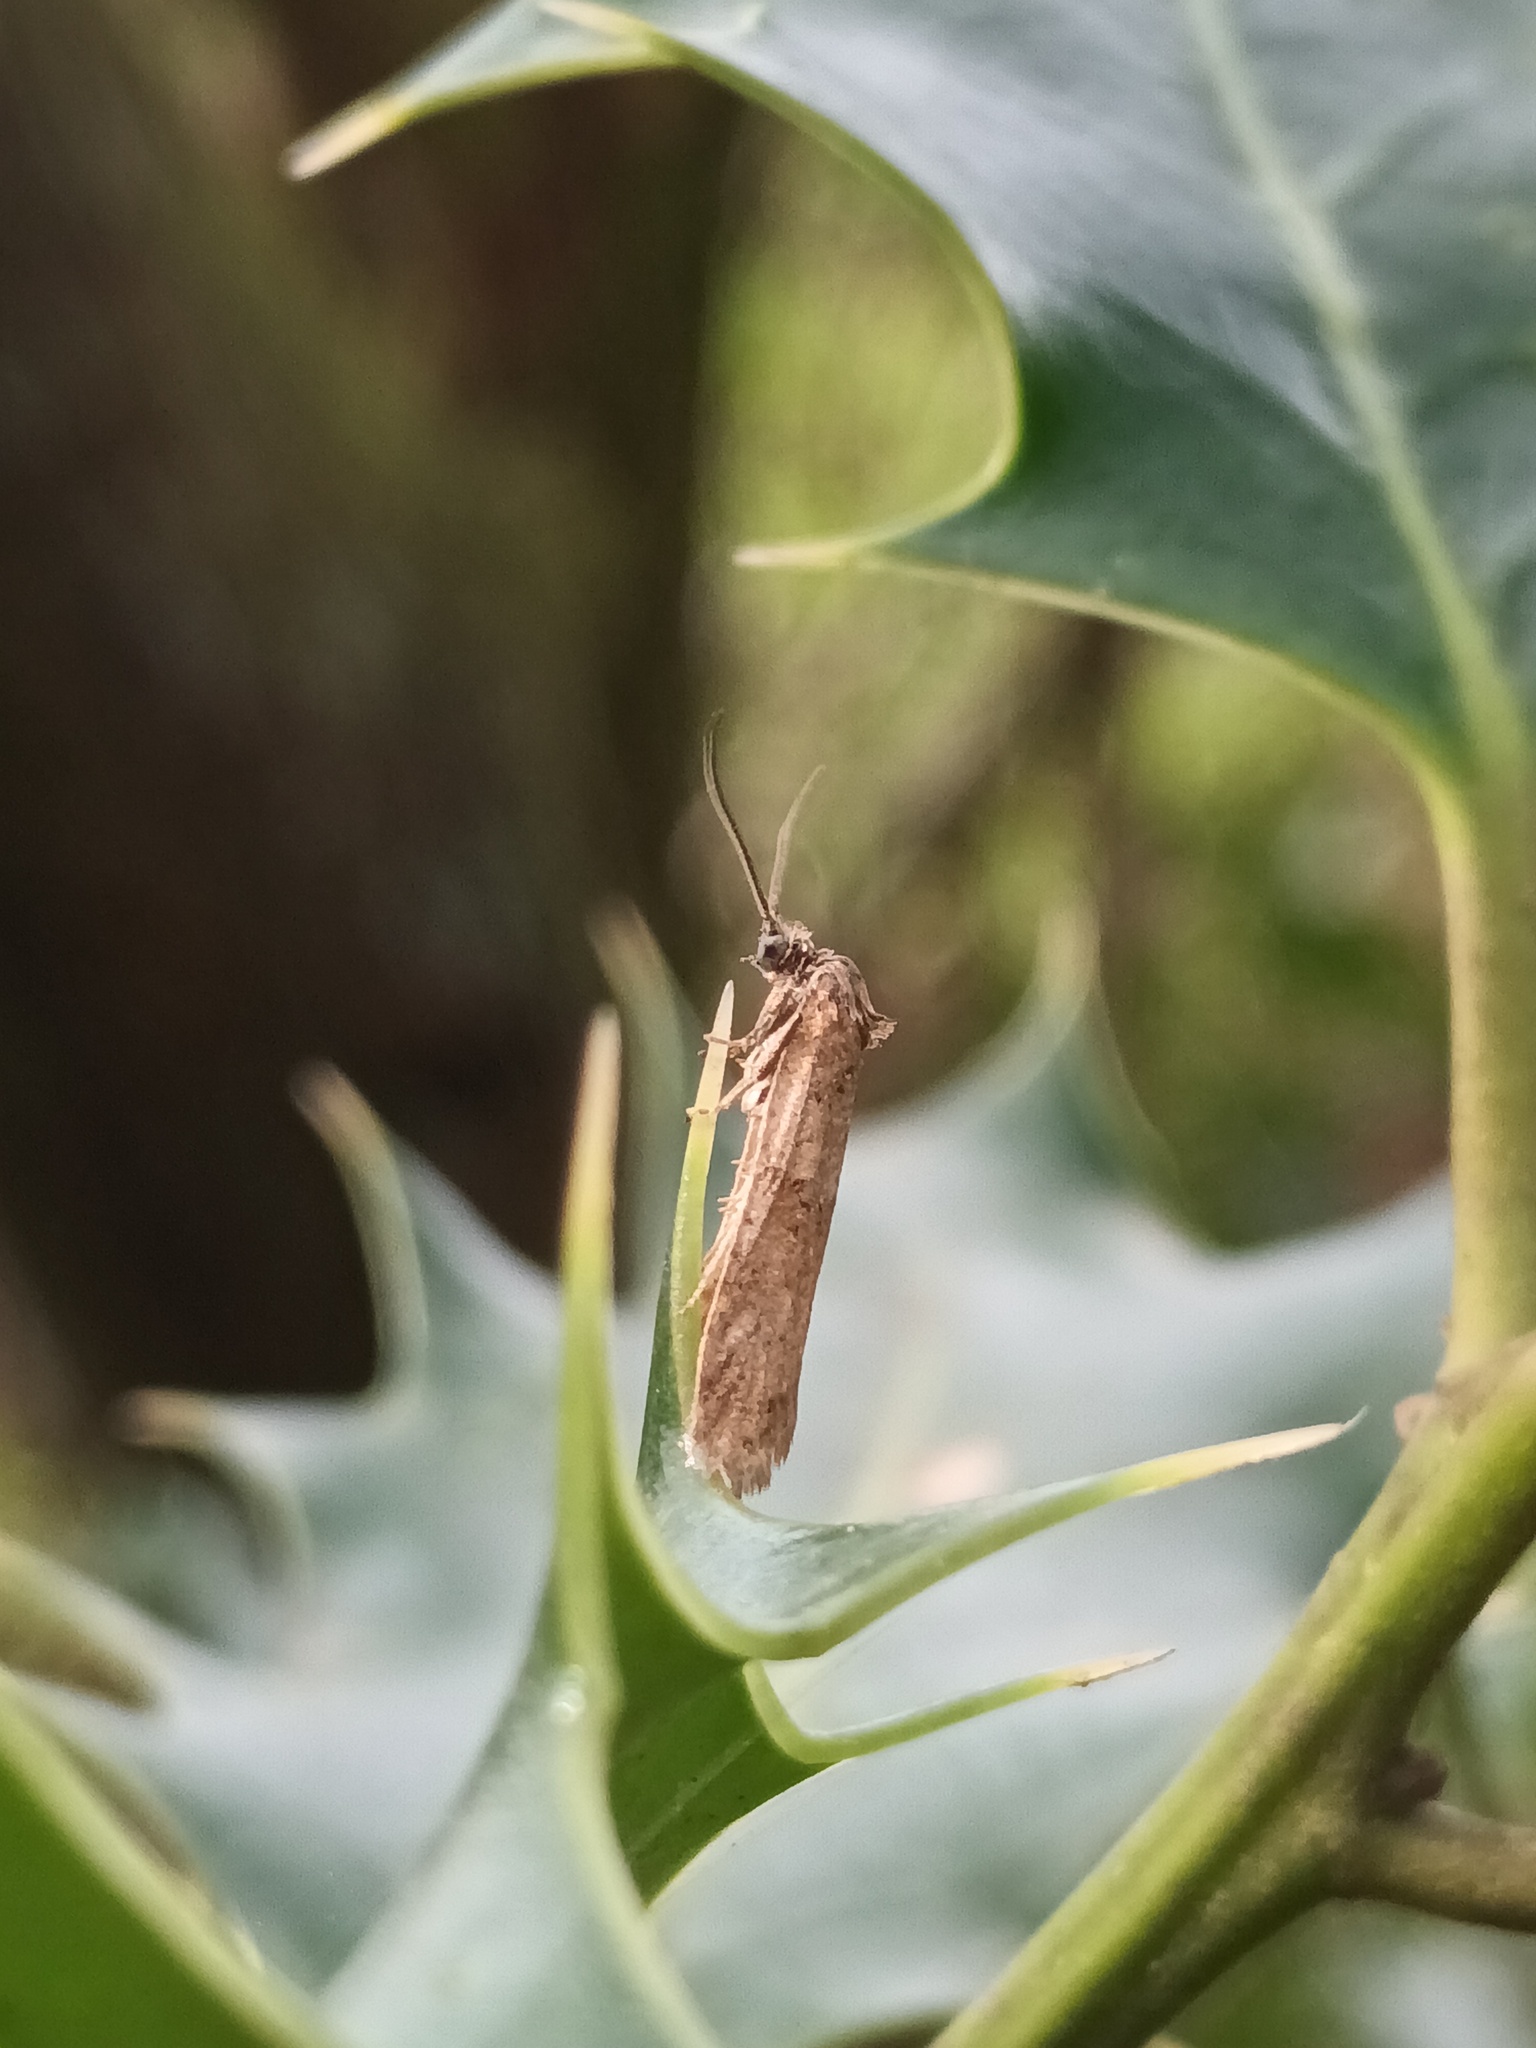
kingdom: Animalia
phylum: Arthropoda
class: Insecta
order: Lepidoptera
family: Tortricidae
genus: Tortricodes
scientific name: Tortricodes alternella
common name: Winter shade
